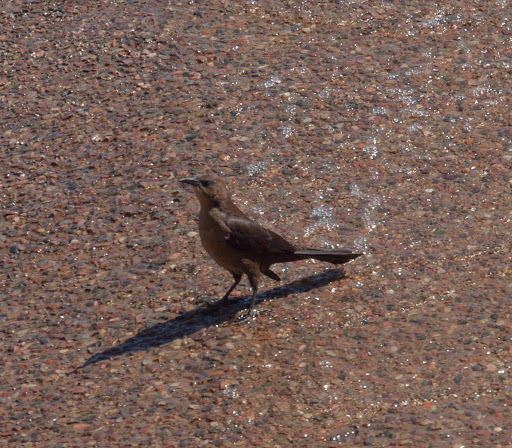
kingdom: Animalia
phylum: Chordata
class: Aves
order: Passeriformes
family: Icteridae
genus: Quiscalus
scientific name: Quiscalus mexicanus
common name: Great-tailed grackle
